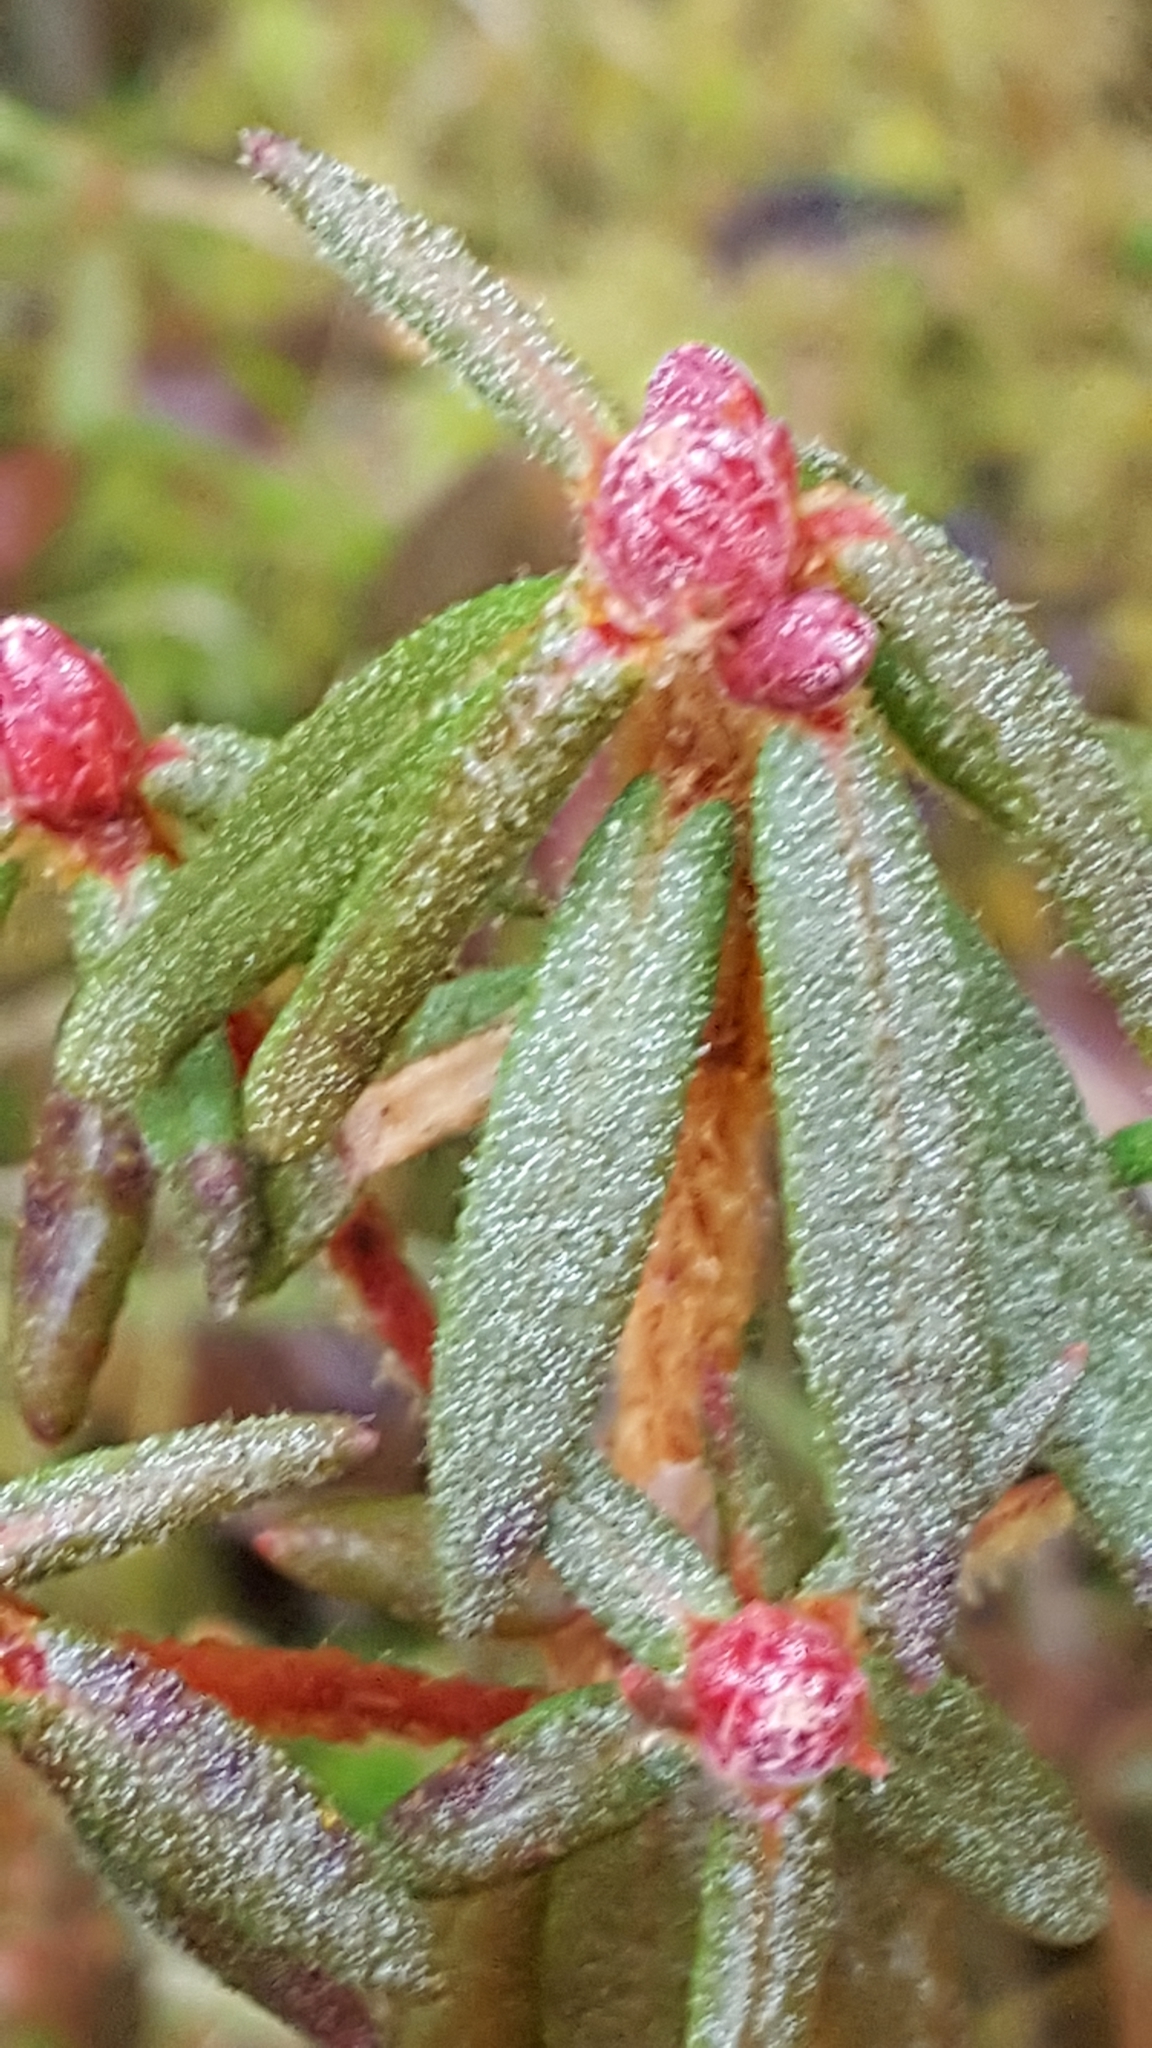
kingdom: Plantae
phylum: Tracheophyta
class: Magnoliopsida
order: Ericales
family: Ericaceae
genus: Rhododendron
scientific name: Rhododendron groenlandicum
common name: Bog labrador tea
